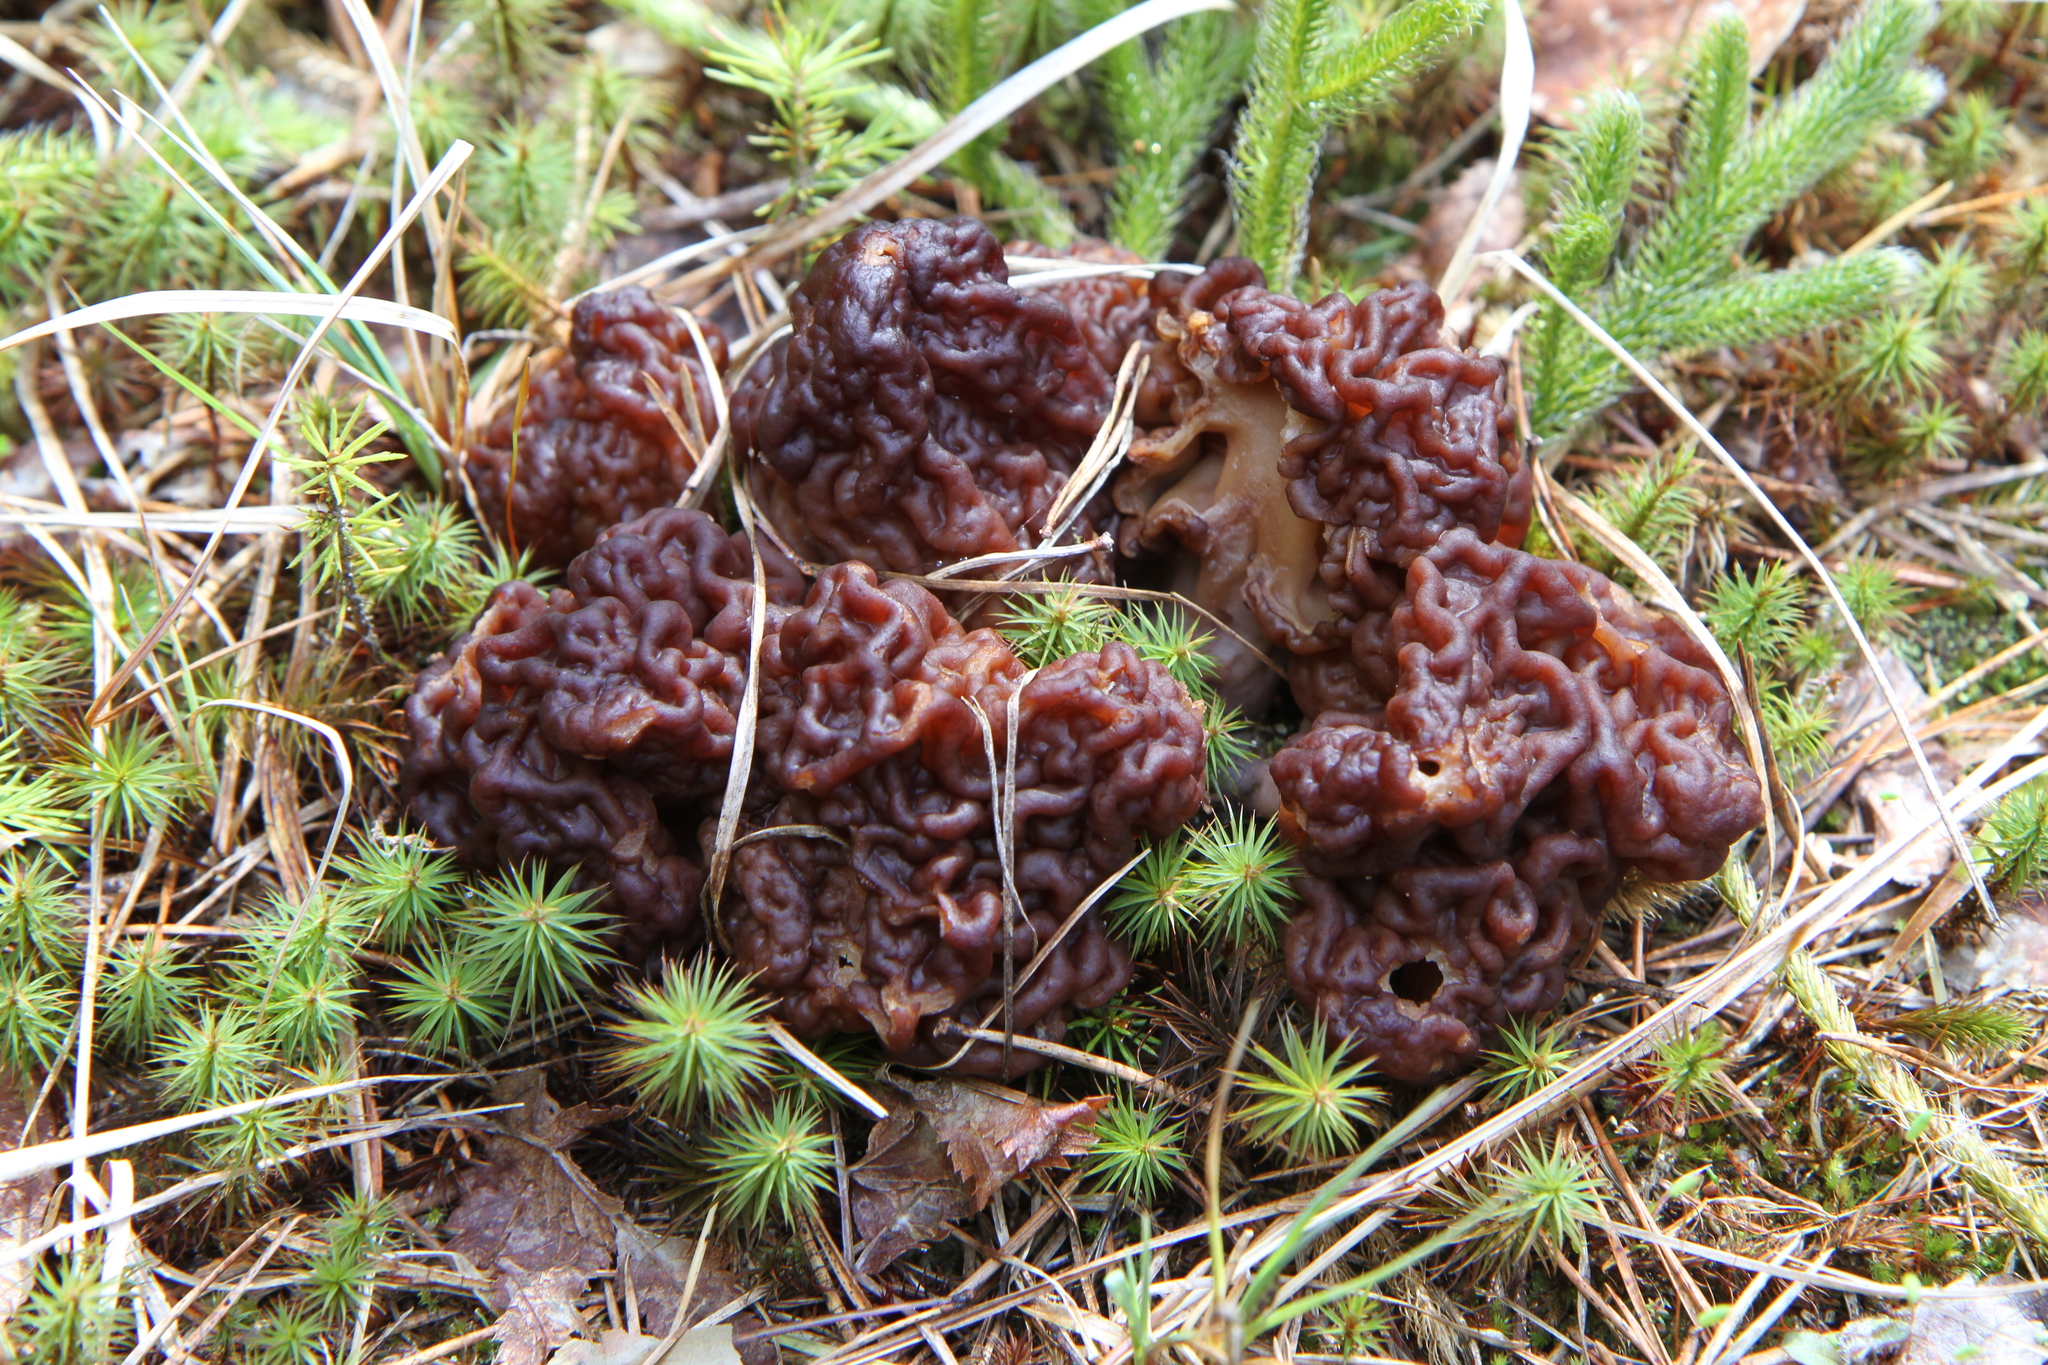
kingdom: Fungi
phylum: Ascomycota
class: Pezizomycetes
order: Pezizales
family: Discinaceae
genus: Gyromitra
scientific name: Gyromitra esculenta
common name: False morel
